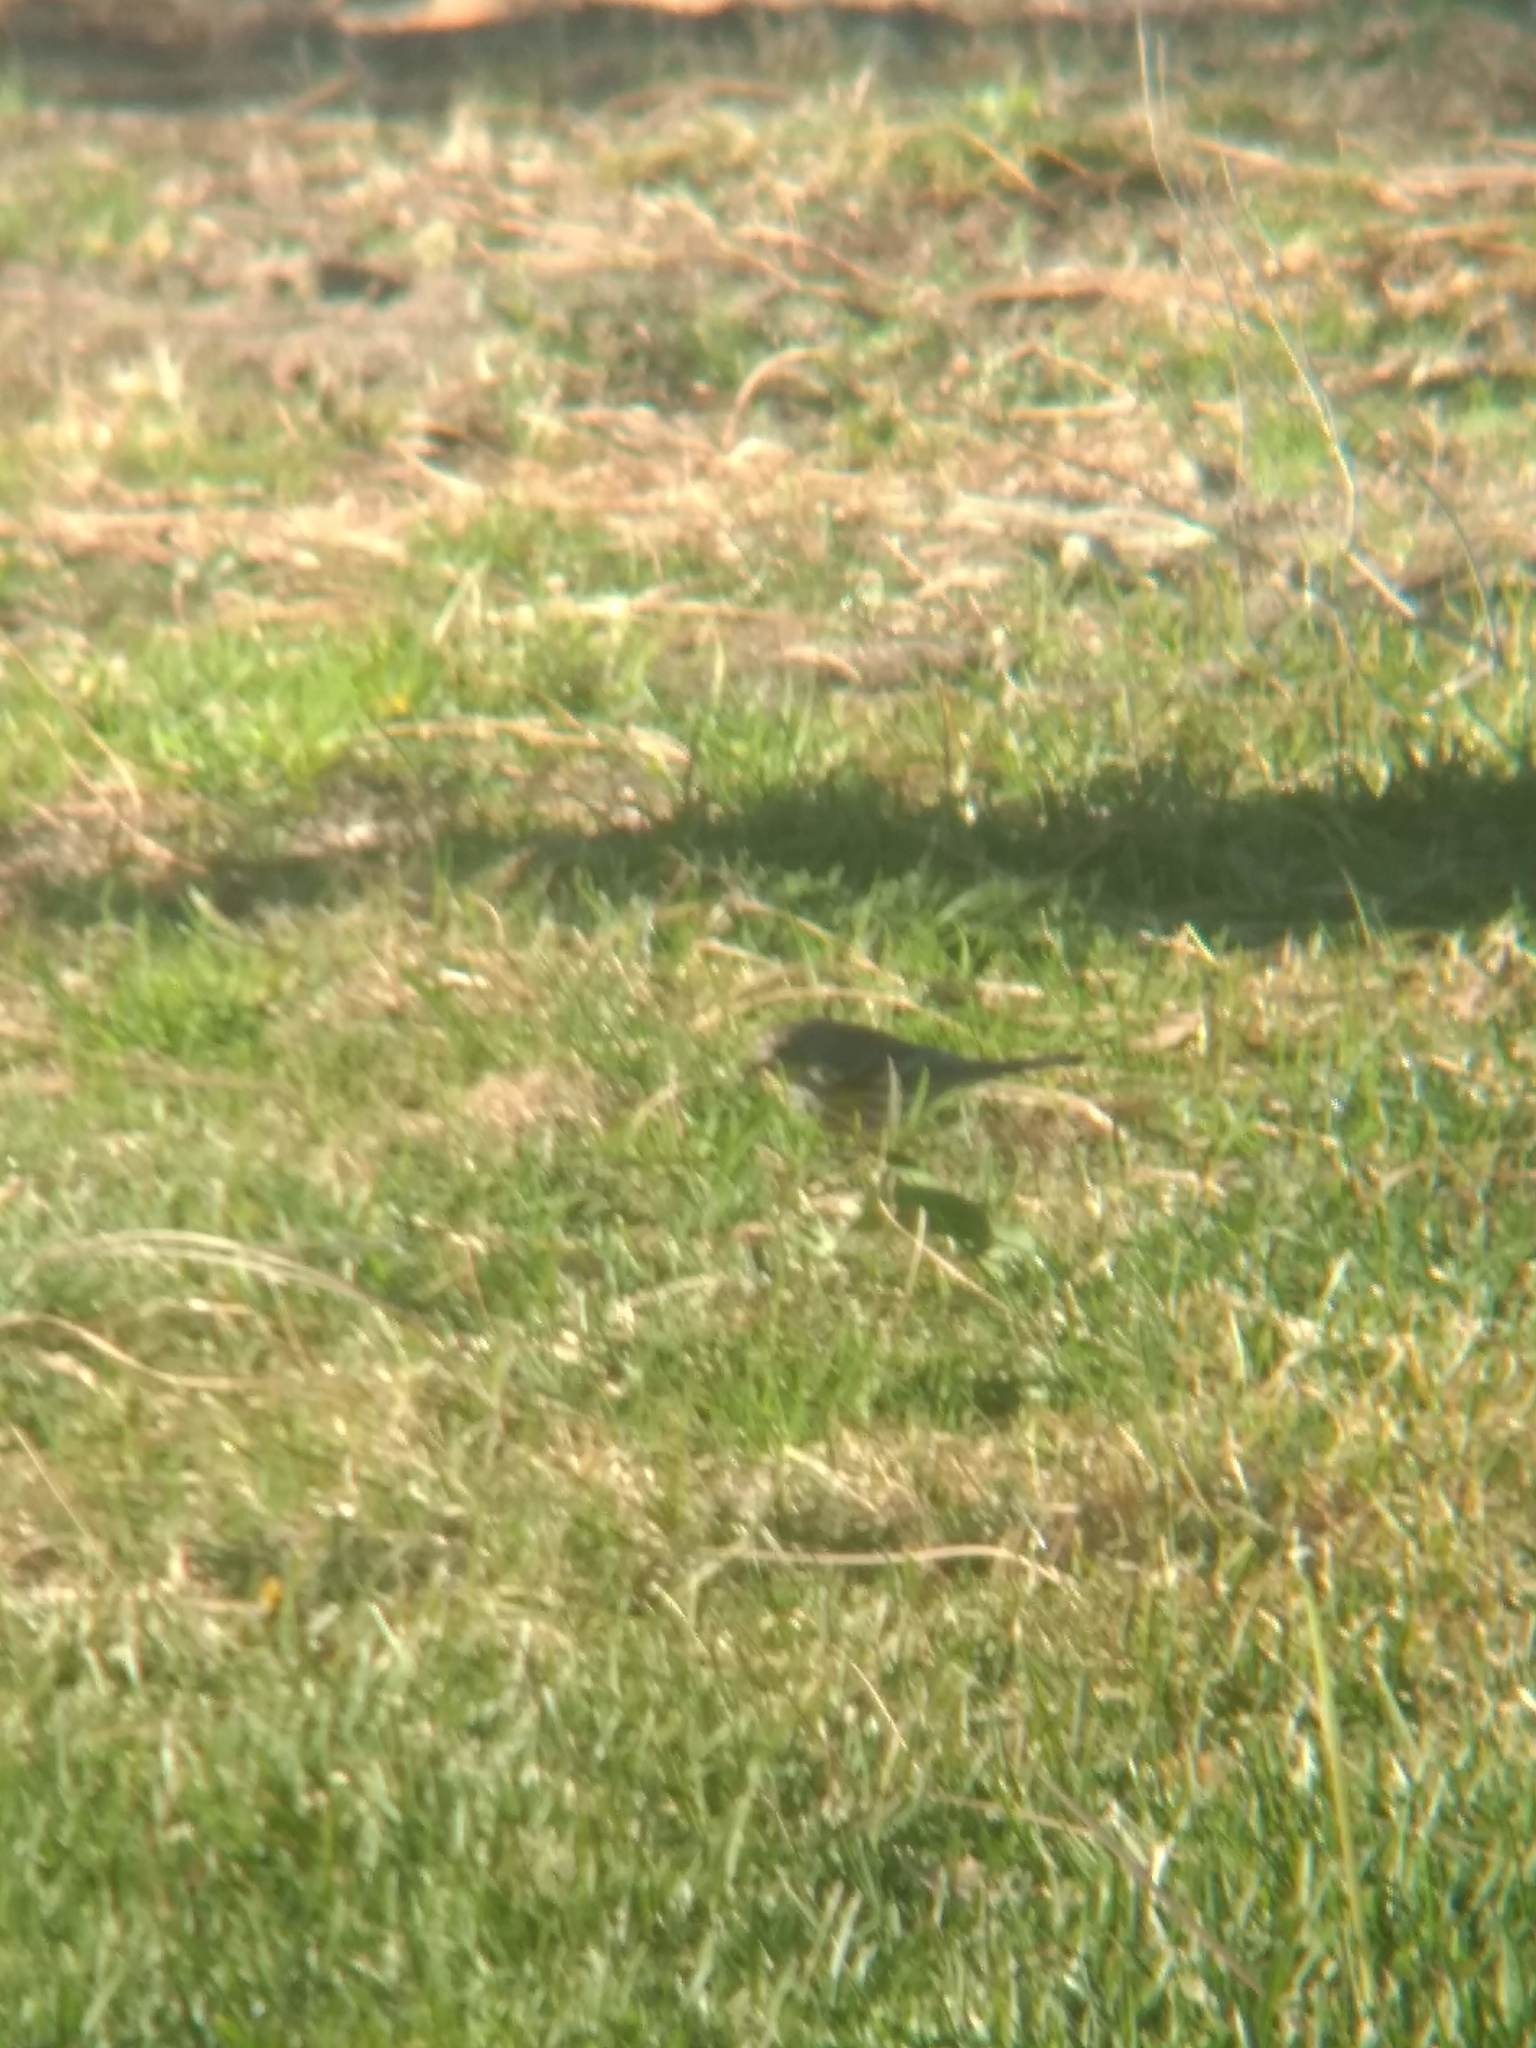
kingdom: Animalia
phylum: Chordata
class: Aves
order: Passeriformes
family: Parulidae
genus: Setophaga
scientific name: Setophaga coronata
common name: Myrtle warbler
